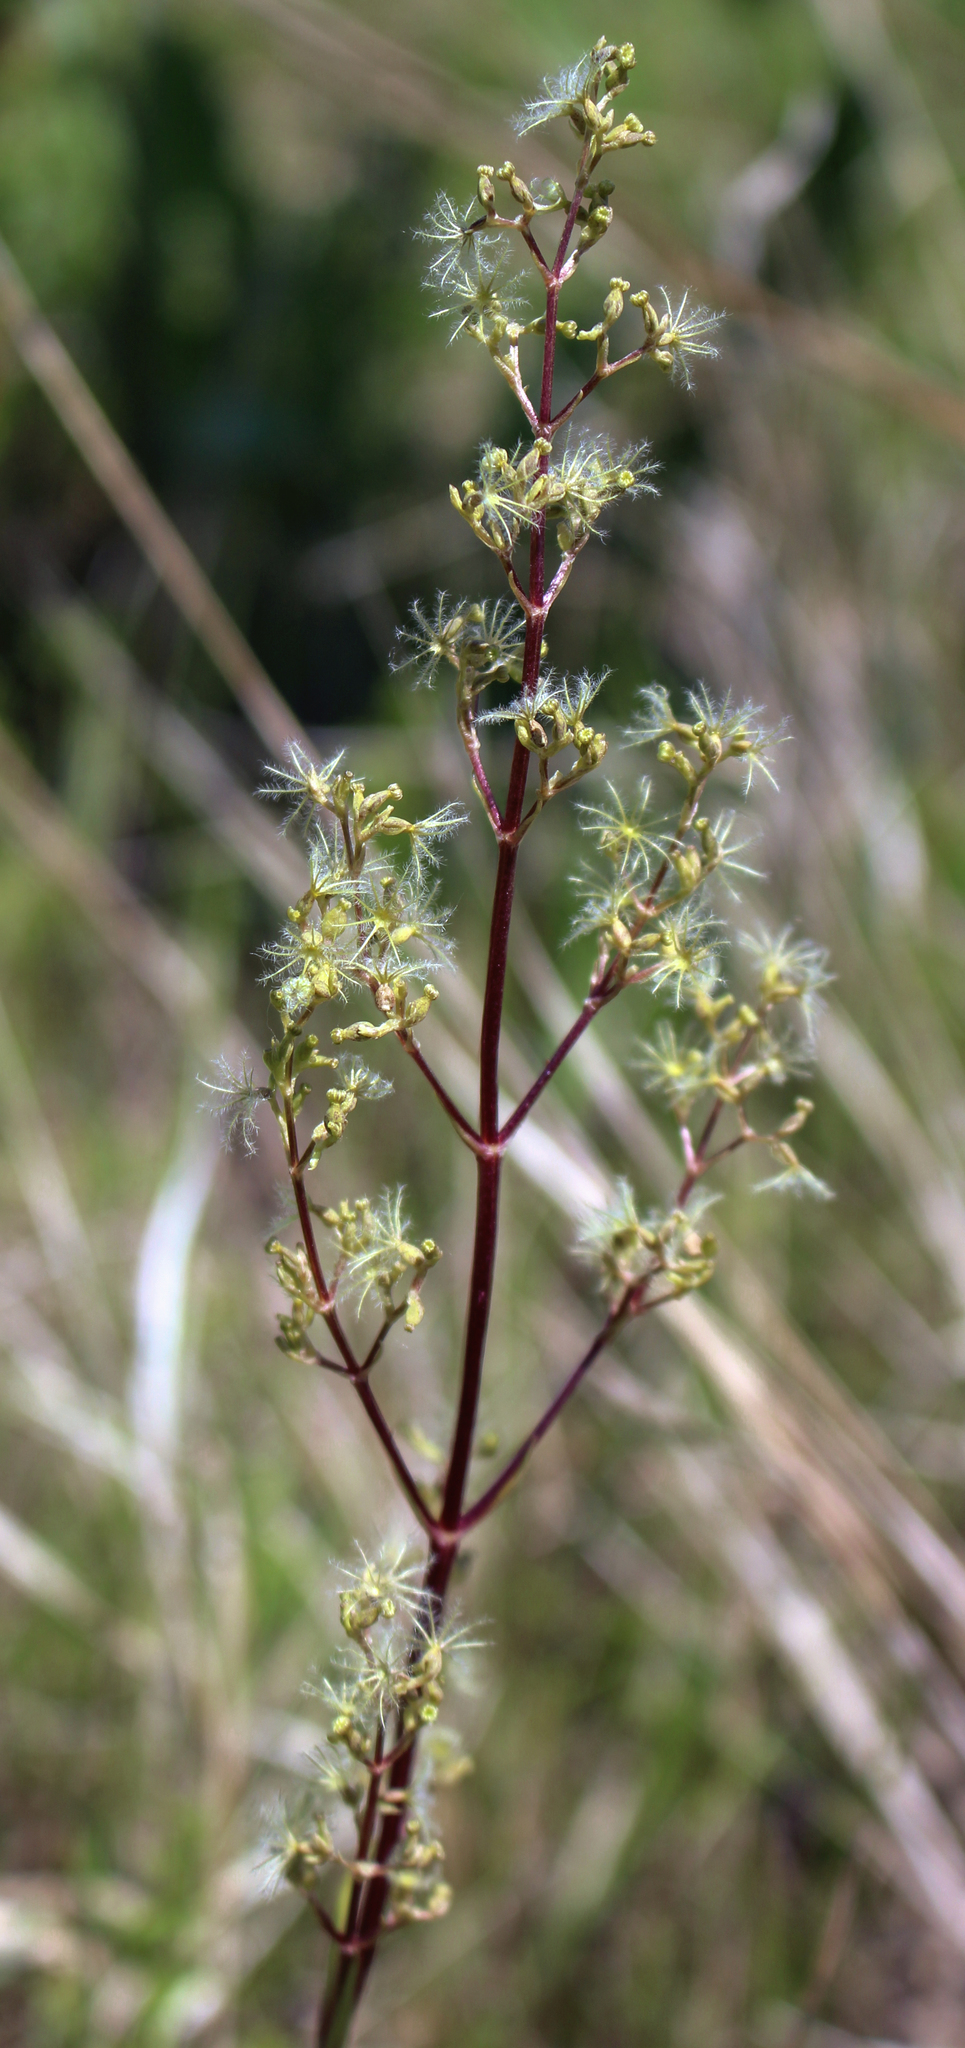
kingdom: Plantae
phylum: Tracheophyta
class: Magnoliopsida
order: Dipsacales
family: Caprifoliaceae
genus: Valeriana
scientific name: Valeriana edulis
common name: Taproot valerian
